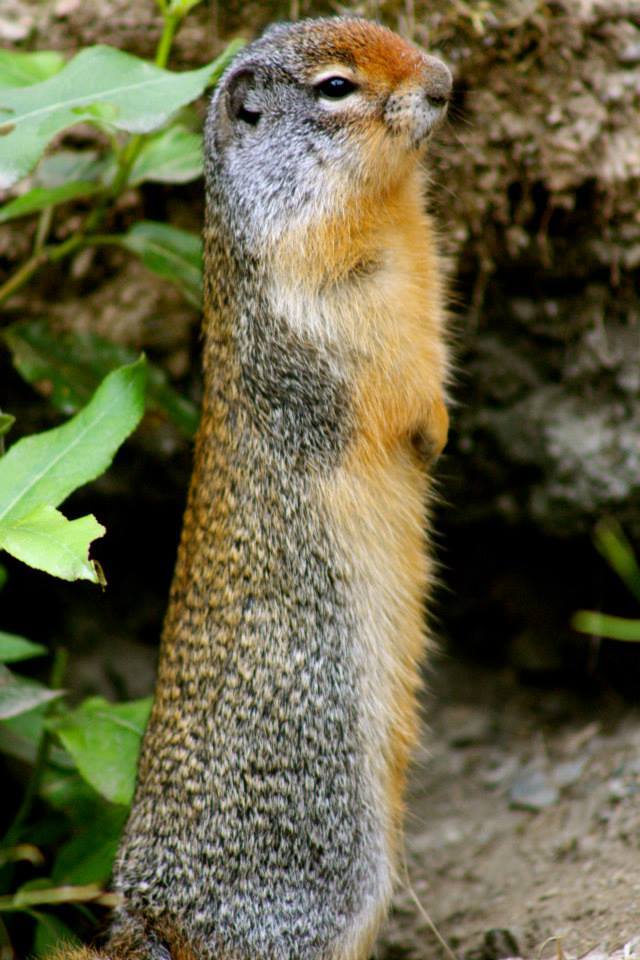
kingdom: Animalia
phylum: Chordata
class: Mammalia
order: Rodentia
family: Sciuridae
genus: Urocitellus
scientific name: Urocitellus columbianus
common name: Columbian ground squirrel
